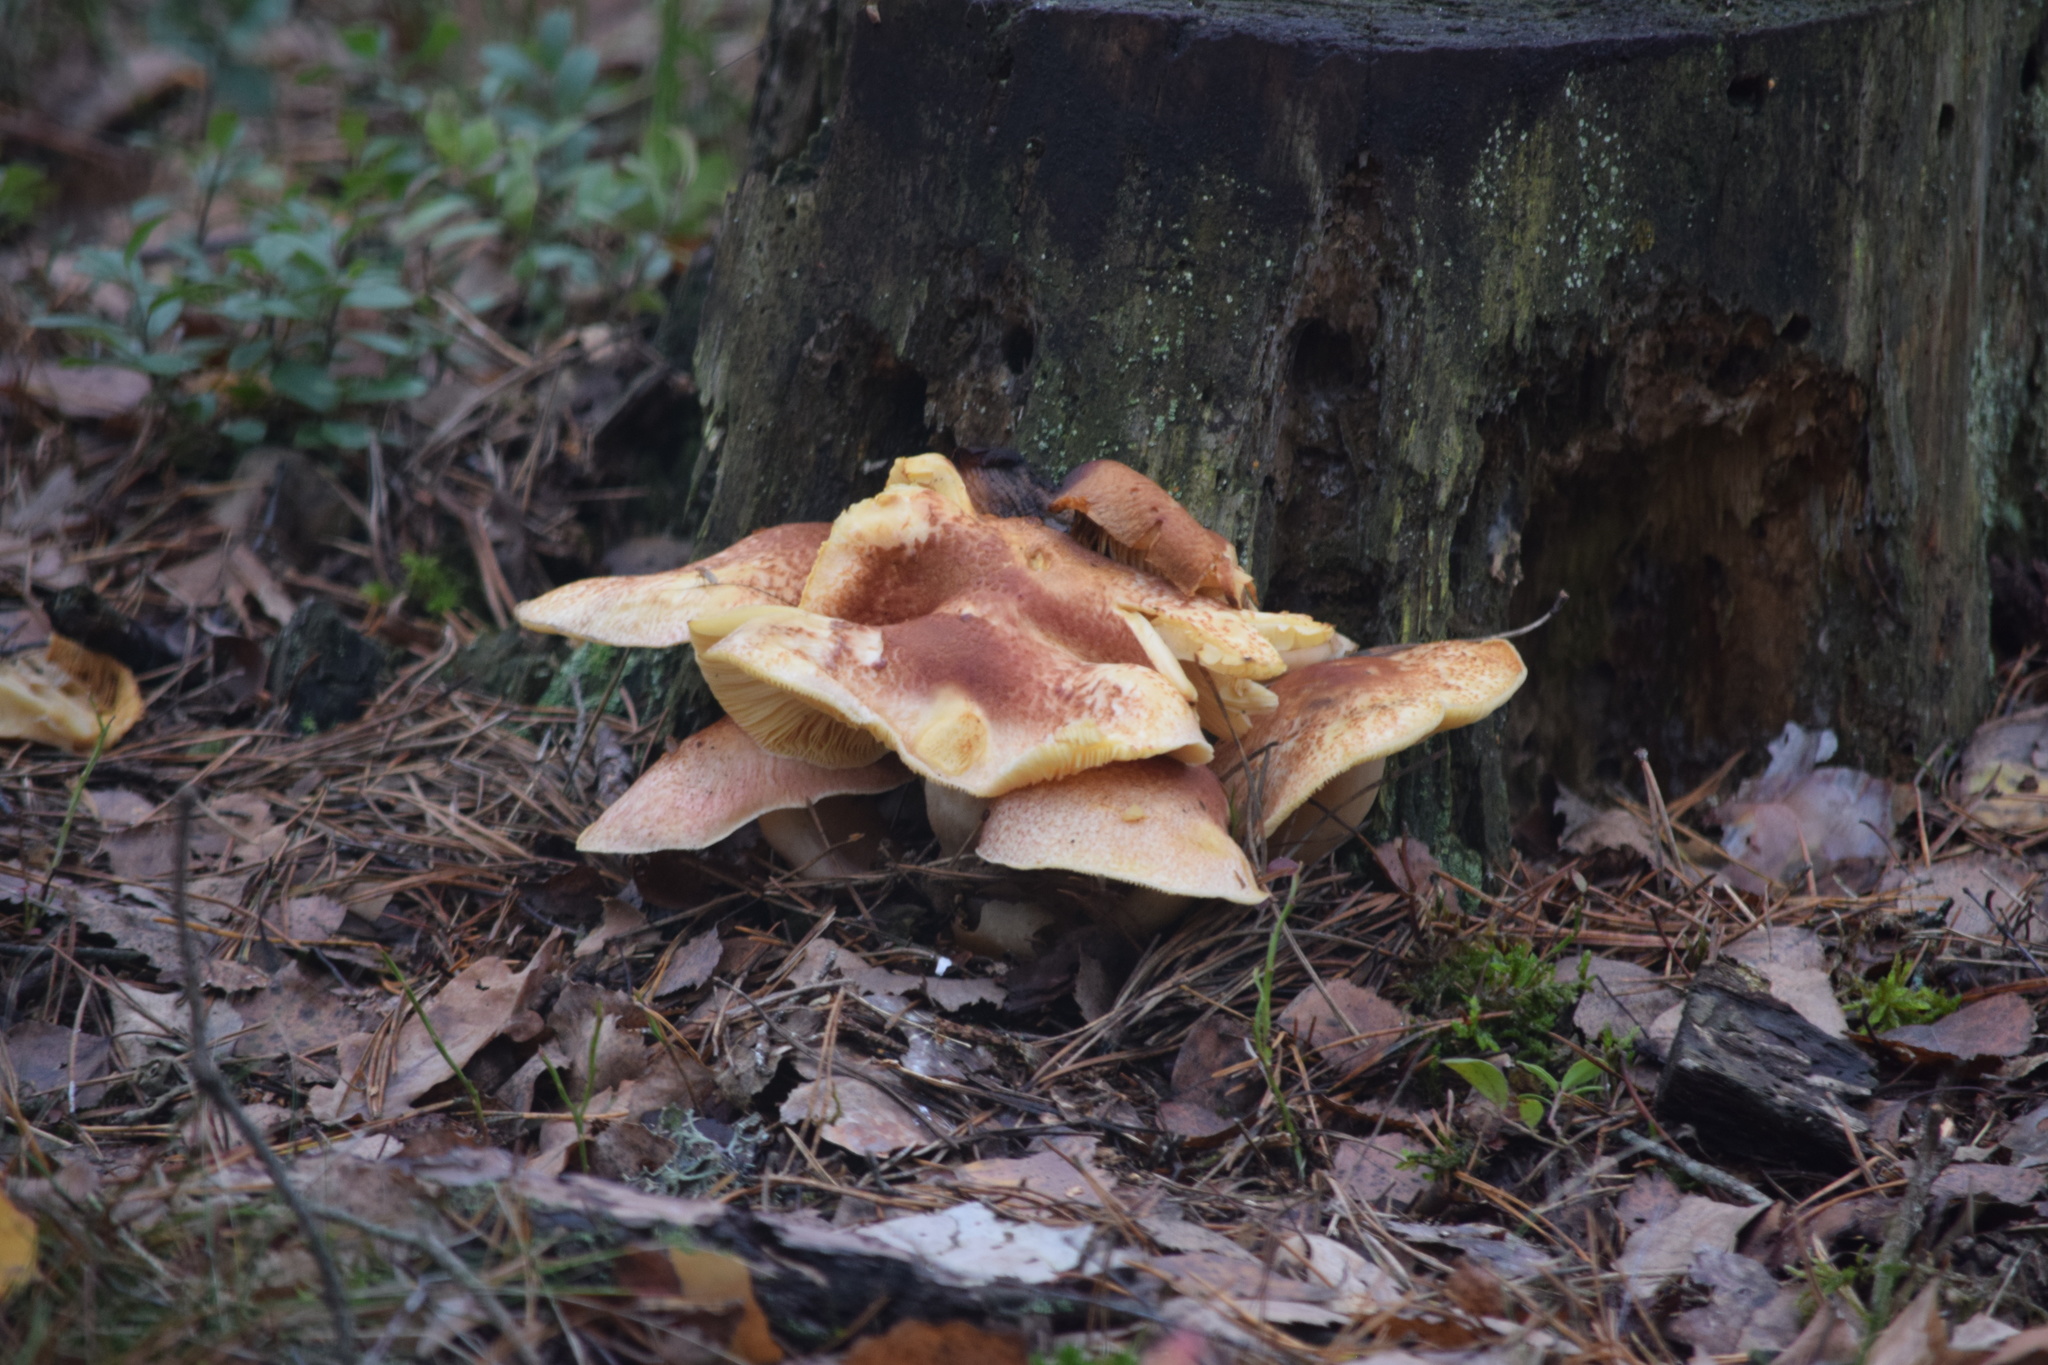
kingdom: Fungi
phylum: Basidiomycota
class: Agaricomycetes
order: Agaricales
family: Tricholomataceae
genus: Tricholomopsis
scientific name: Tricholomopsis rutilans
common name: Plums and custard
